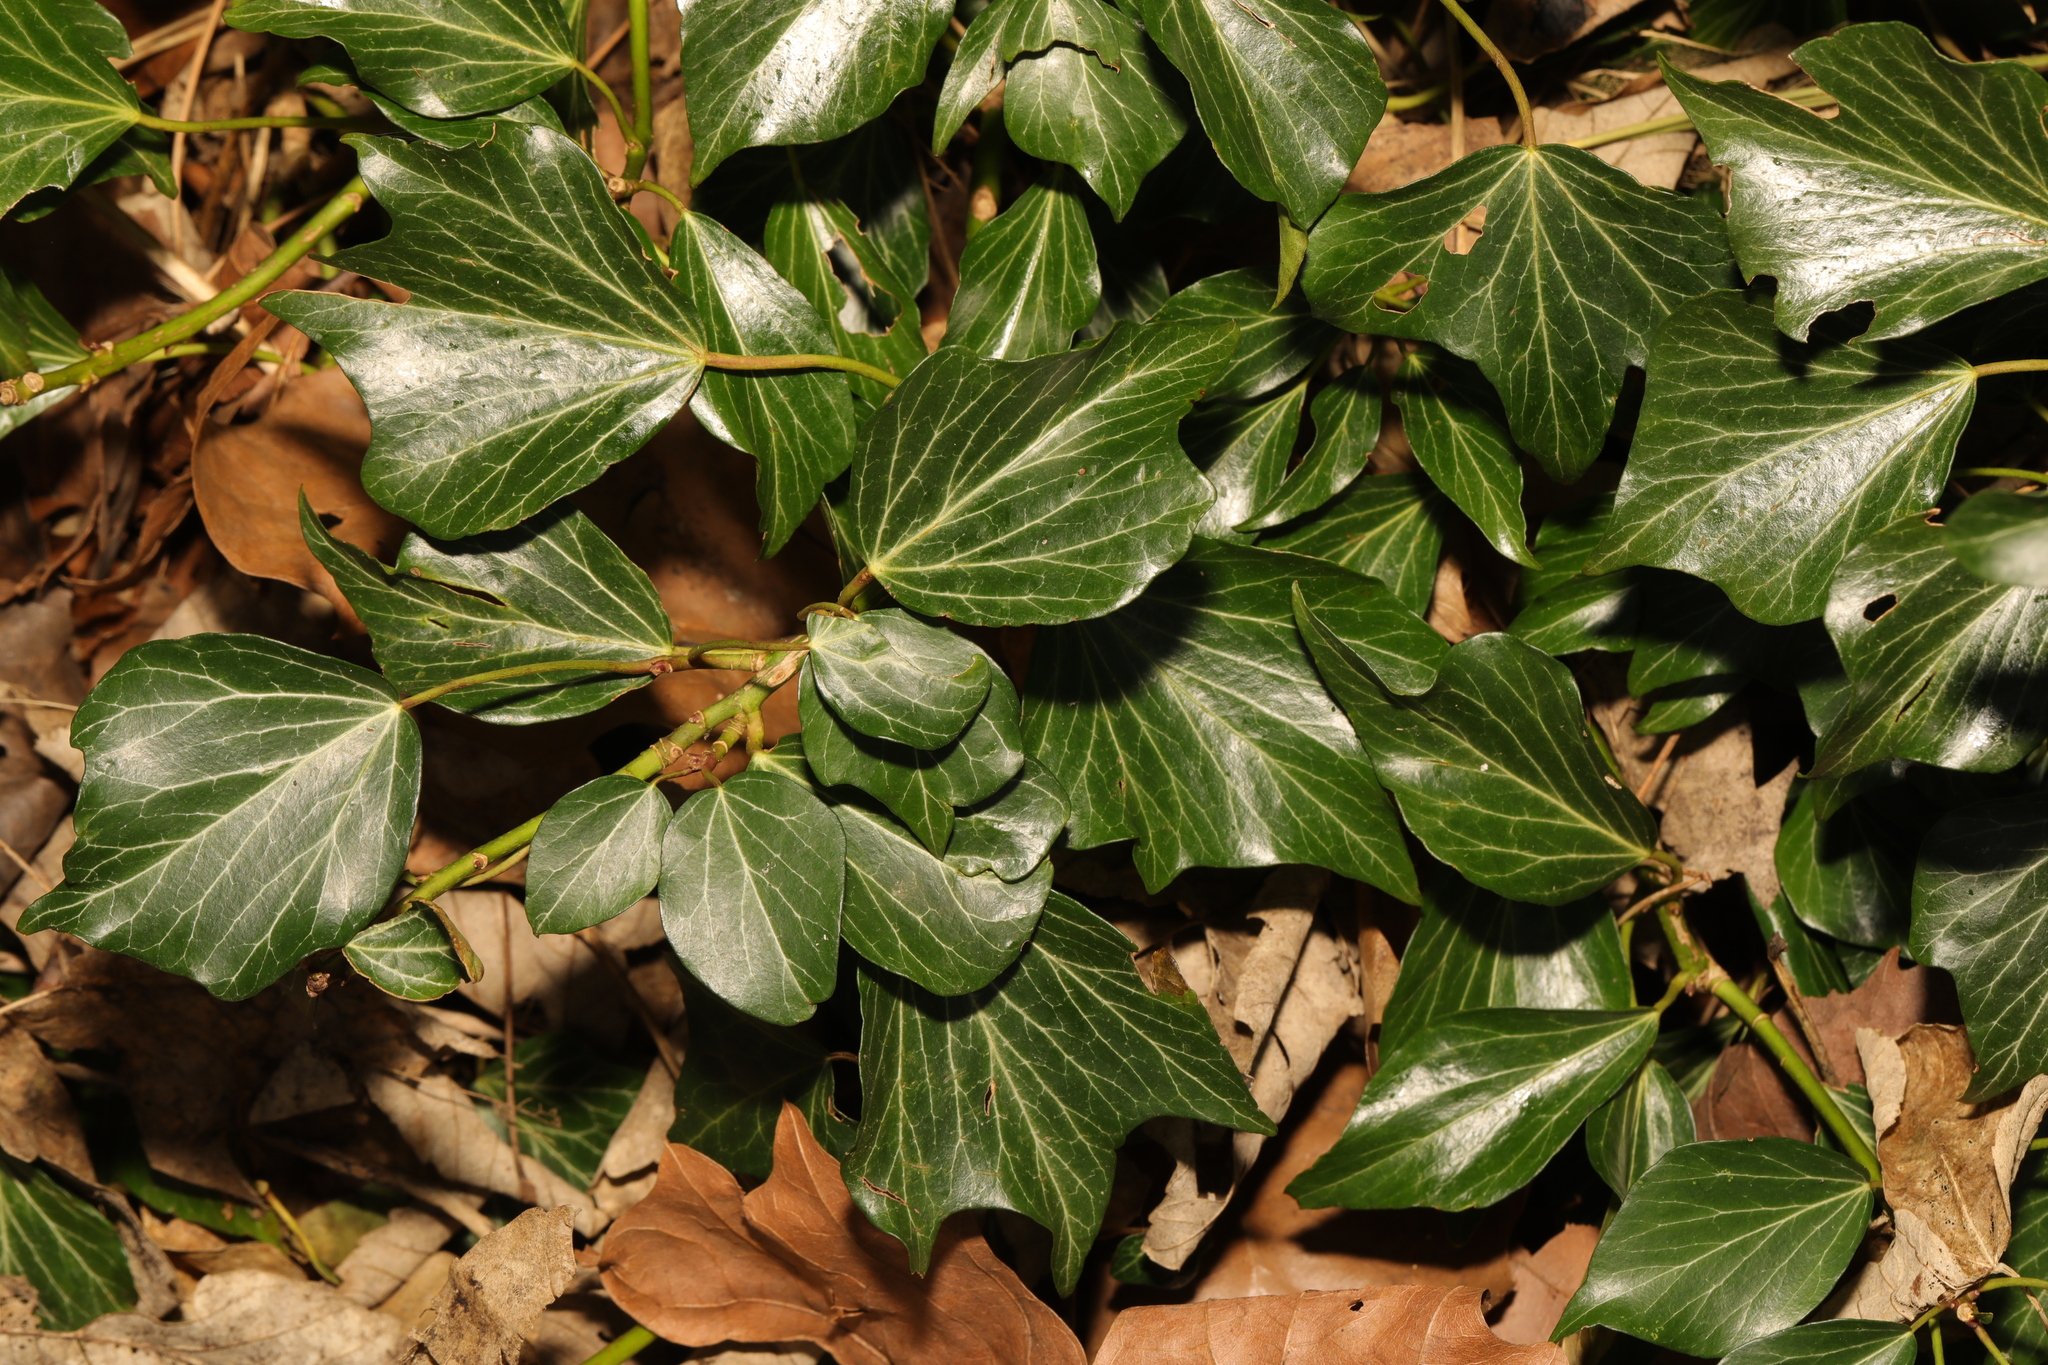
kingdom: Plantae
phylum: Tracheophyta
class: Magnoliopsida
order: Apiales
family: Araliaceae
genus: Hedera
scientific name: Hedera helix
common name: Ivy
